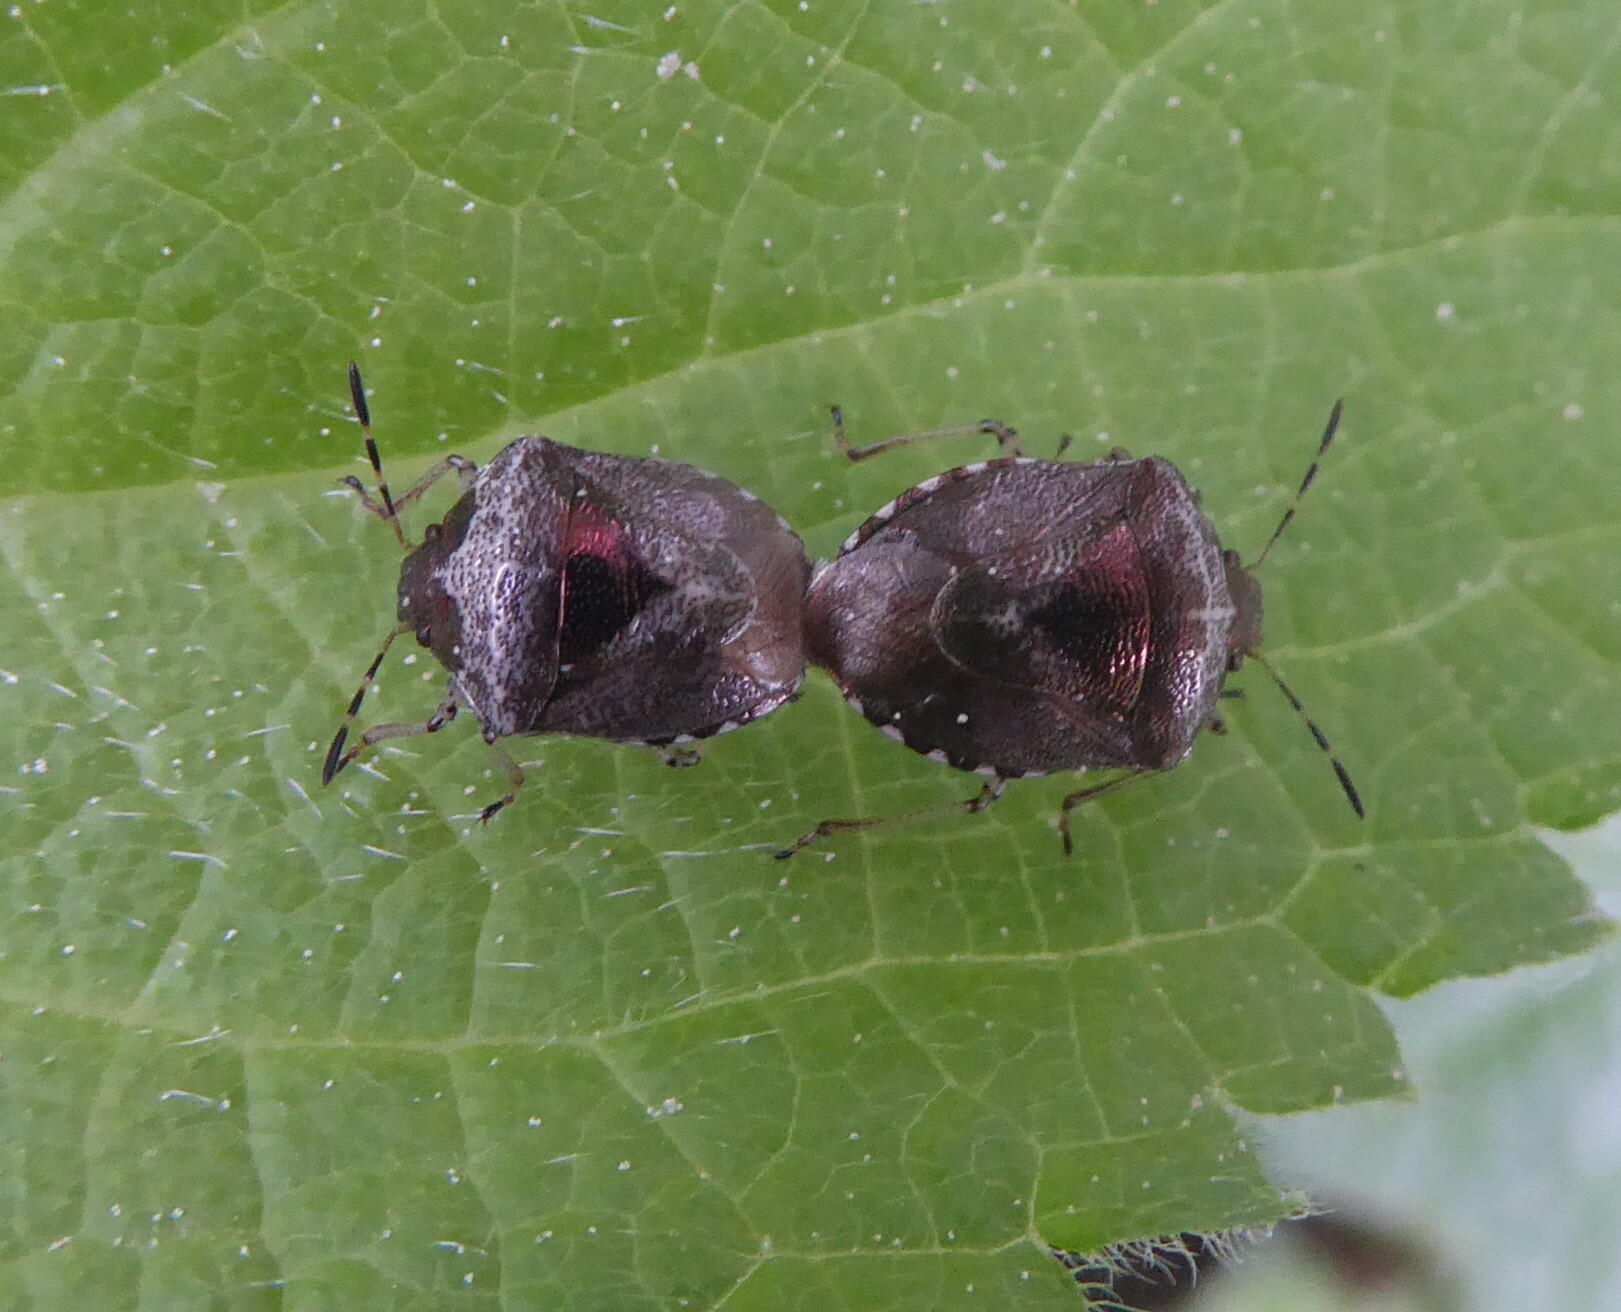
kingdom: Animalia
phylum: Arthropoda
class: Insecta
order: Hemiptera
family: Pentatomidae
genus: Eysarcoris
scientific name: Eysarcoris venustissimus
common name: Woundwort shieldbug
